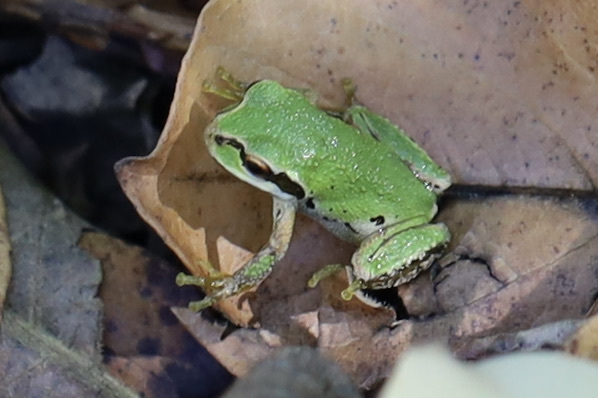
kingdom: Animalia
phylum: Chordata
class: Amphibia
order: Anura
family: Hylidae
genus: Pseudacris
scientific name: Pseudacris regilla
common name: Pacific chorus frog
